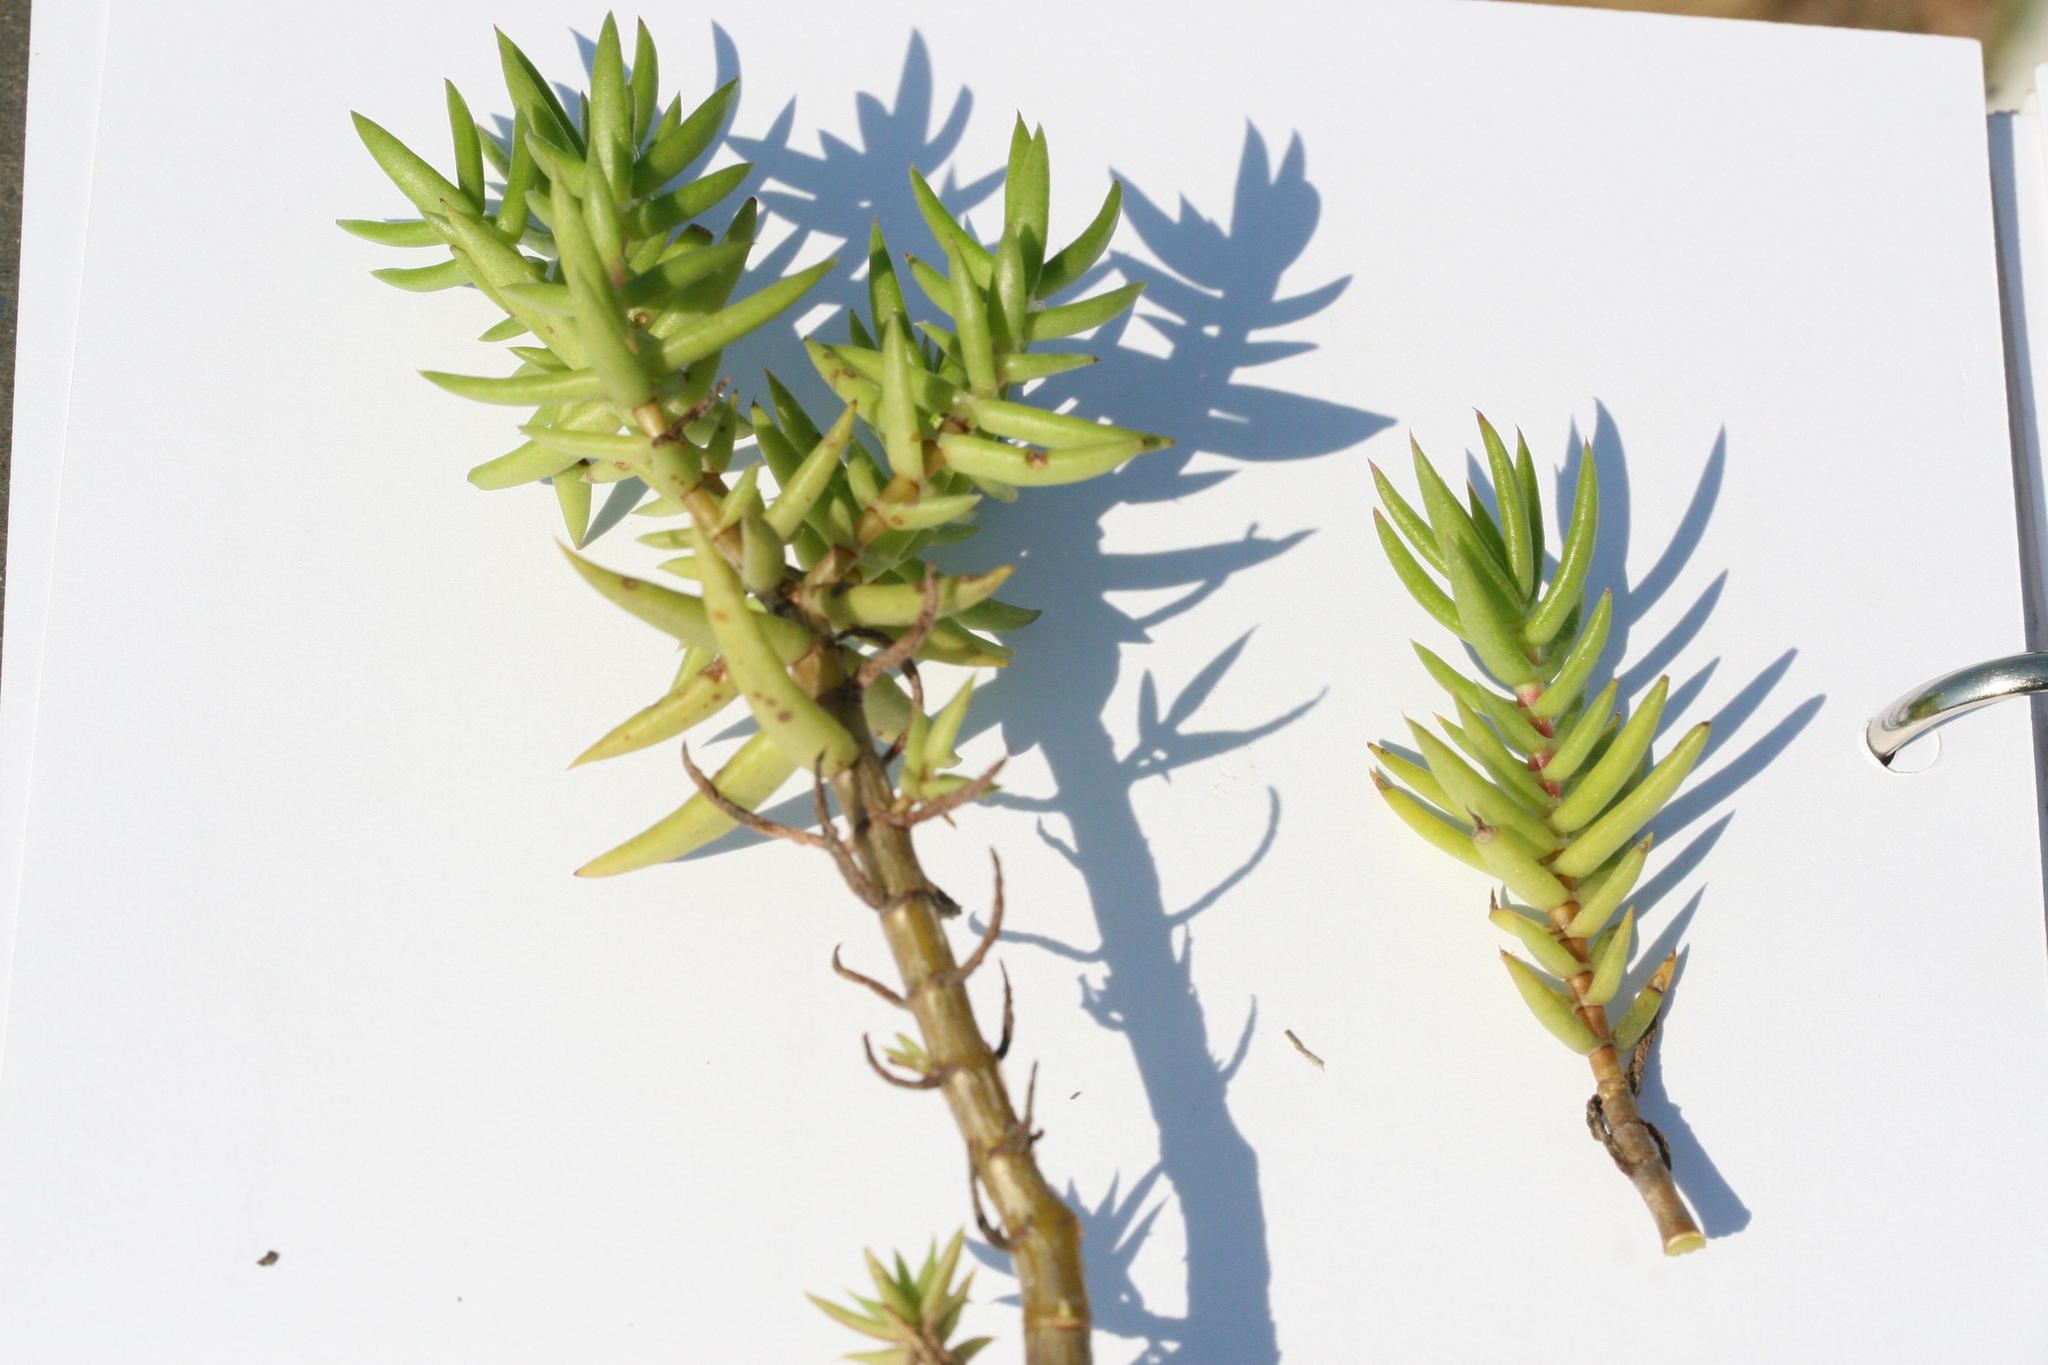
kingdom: Plantae
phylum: Tracheophyta
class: Magnoliopsida
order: Saxifragales
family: Crassulaceae
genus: Crassula
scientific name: Crassula tetragona
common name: Pygmyweed
